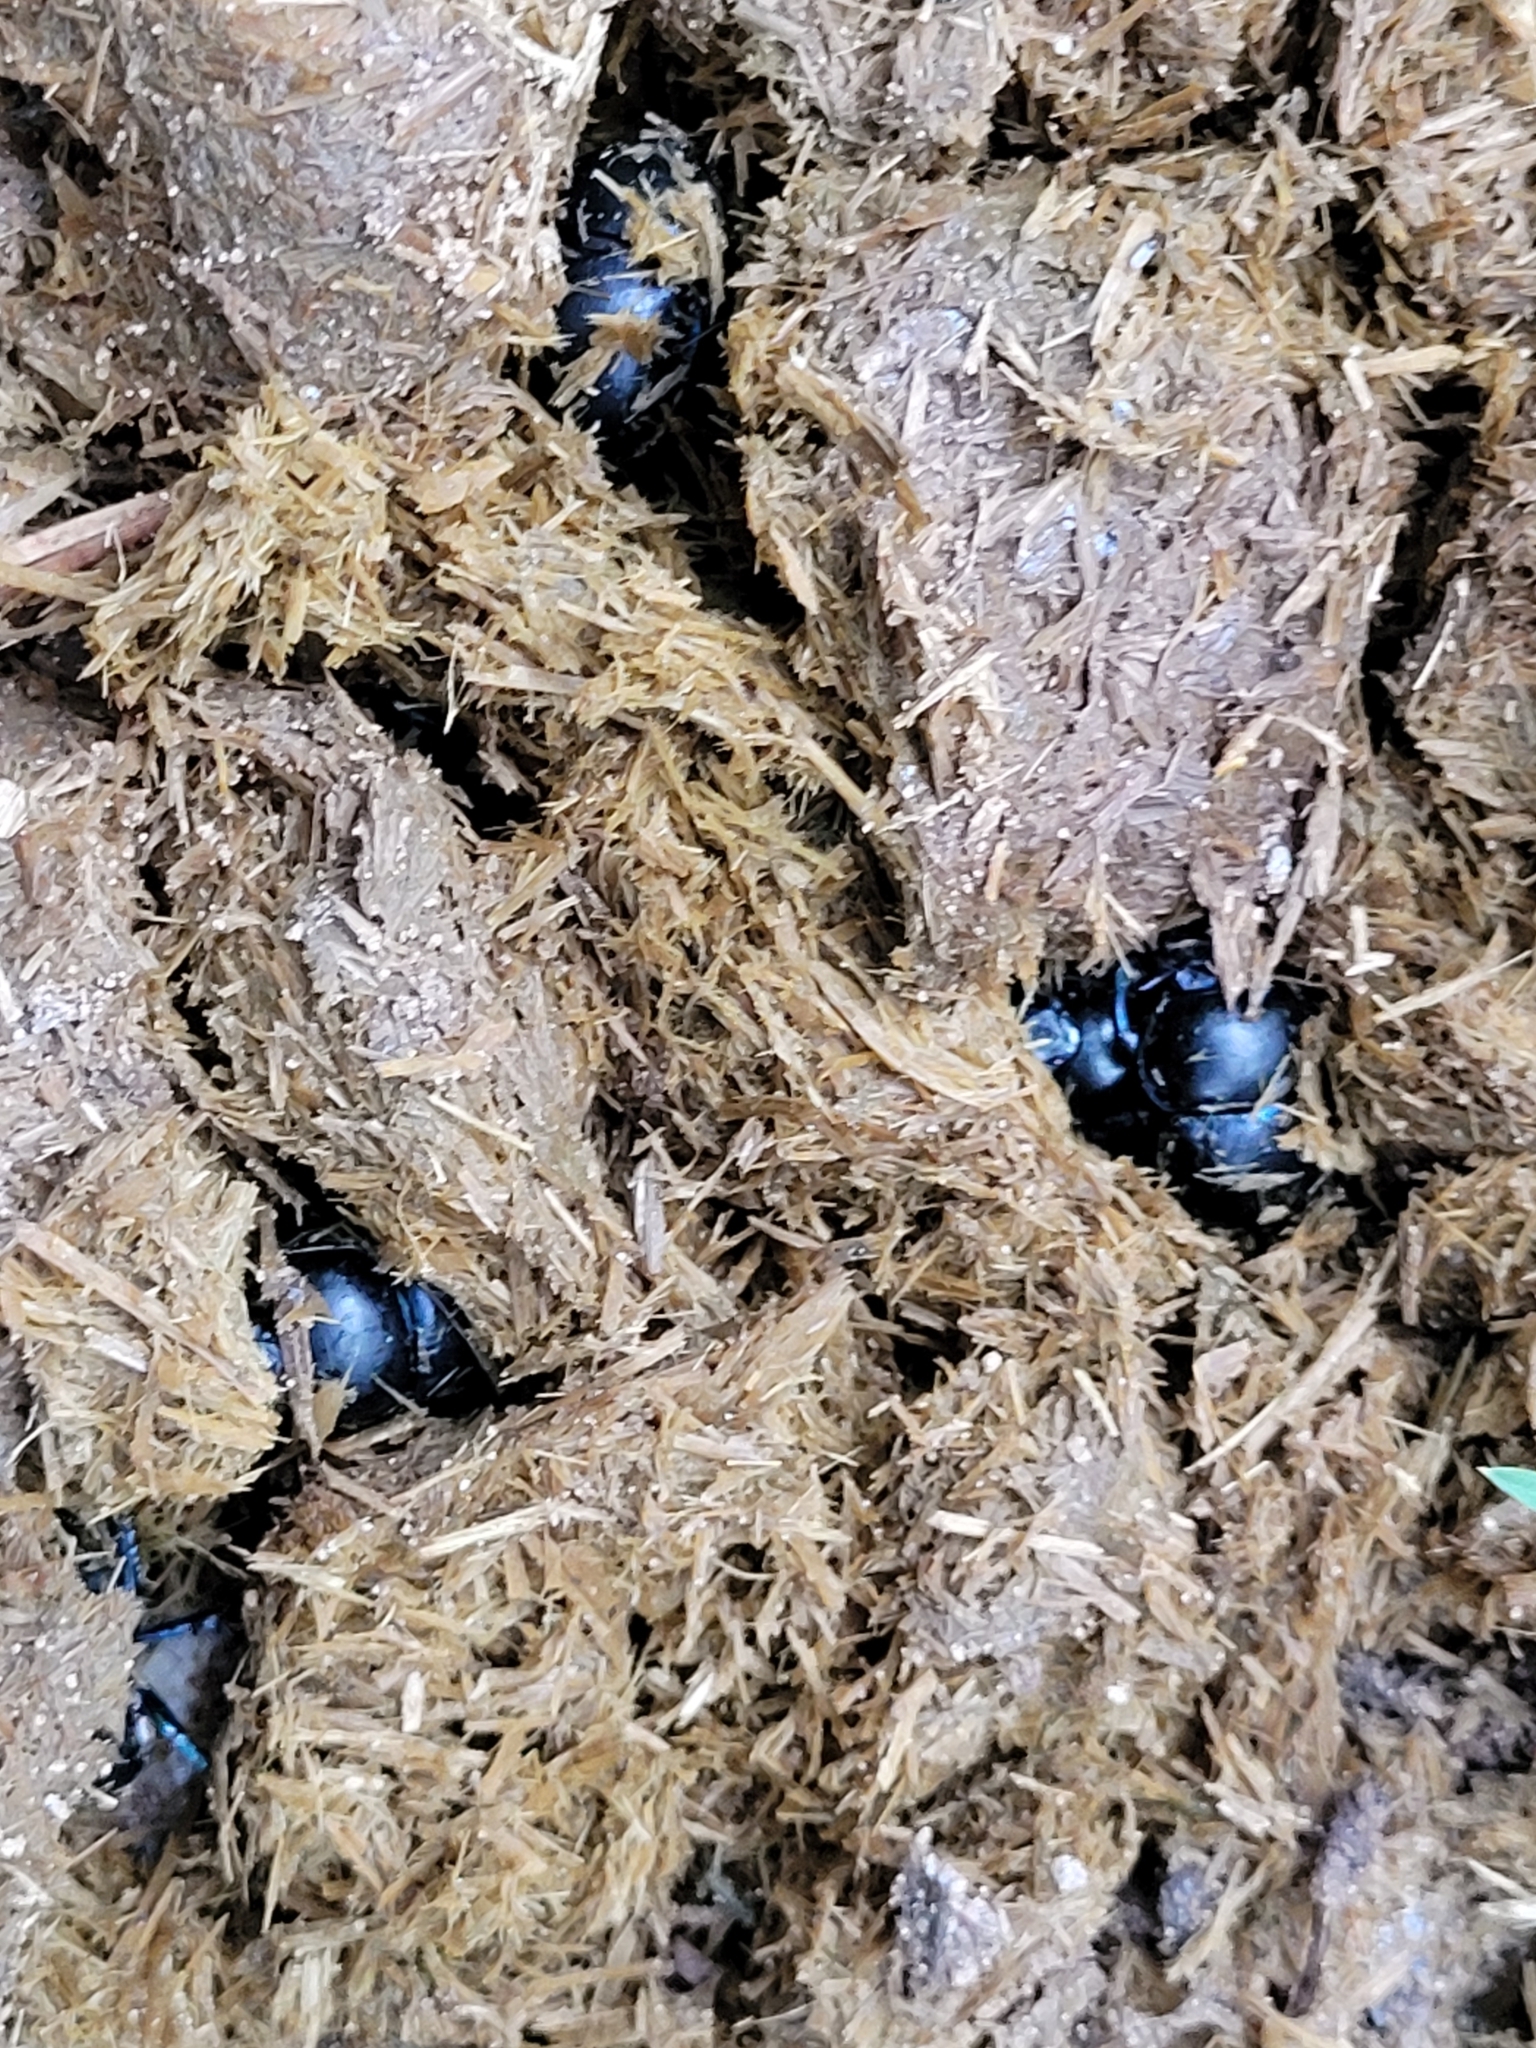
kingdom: Animalia
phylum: Arthropoda
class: Insecta
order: Coleoptera
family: Geotrupidae
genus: Trypocopris
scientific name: Trypocopris vernalis
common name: Spring dumbledor
